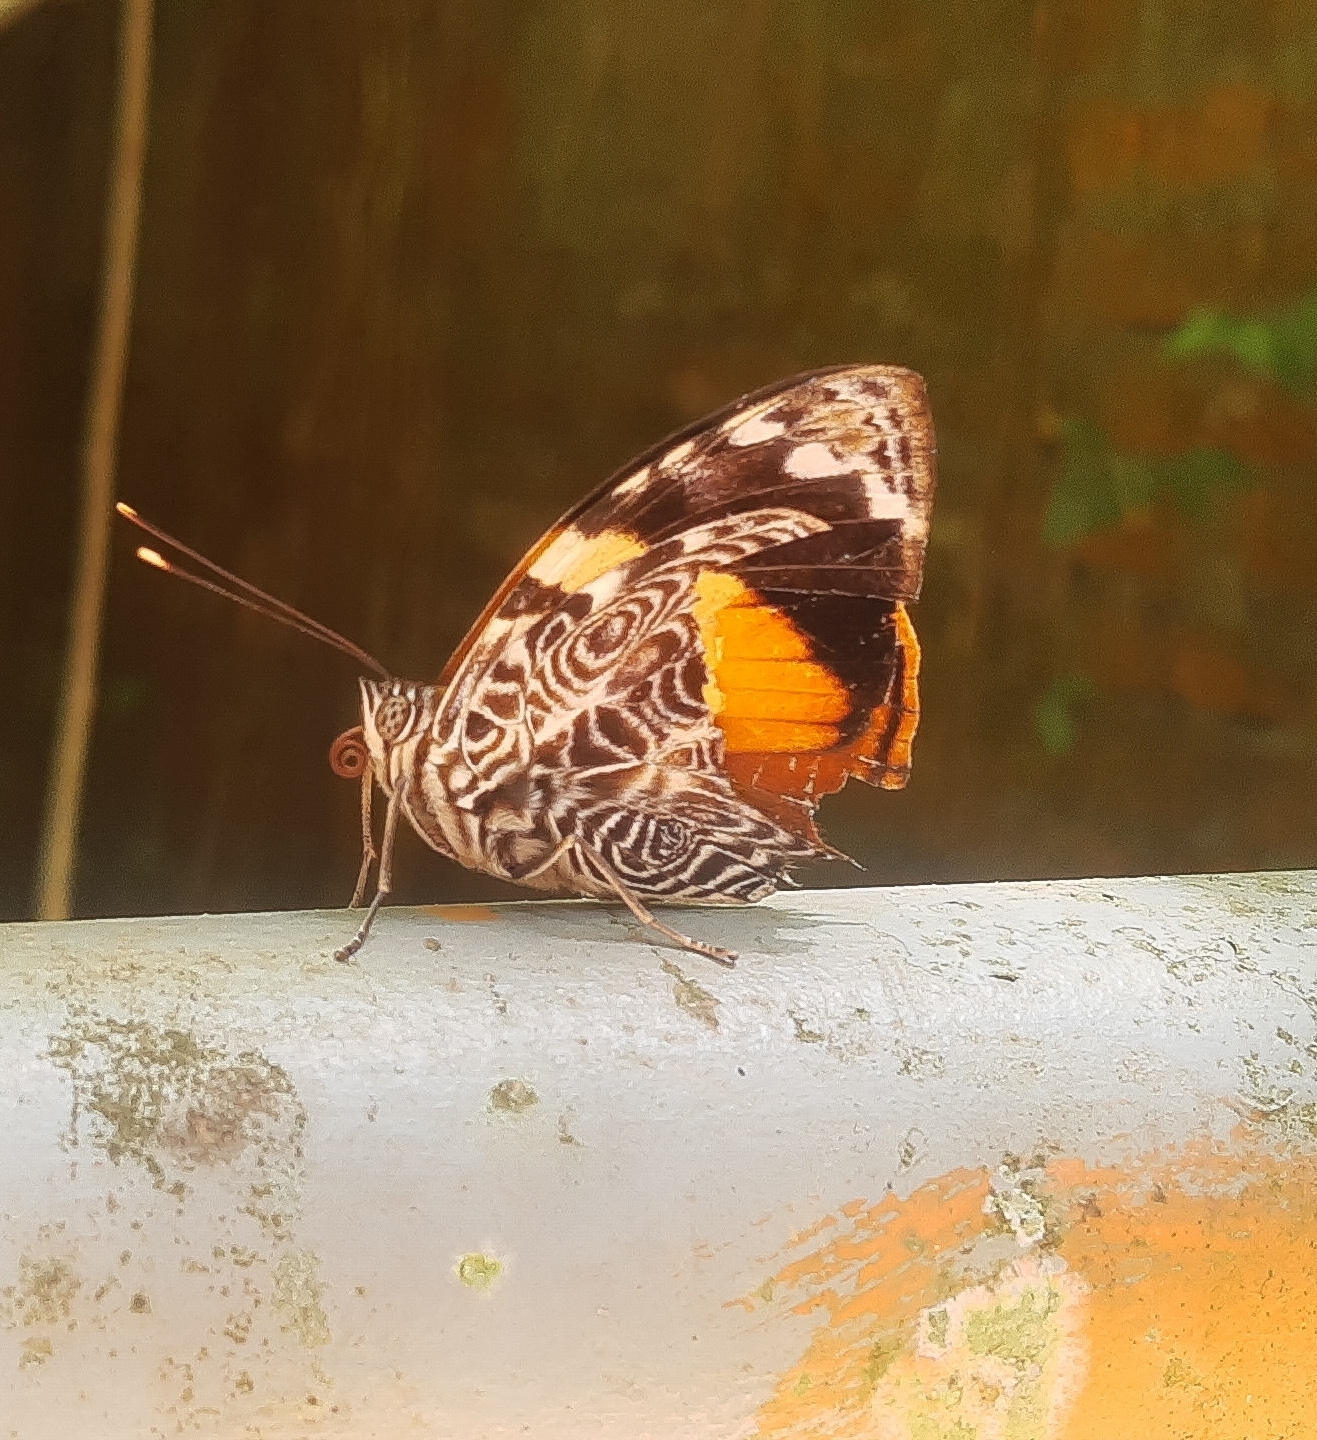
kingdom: Animalia
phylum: Arthropoda
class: Insecta
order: Lepidoptera
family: Nymphalidae
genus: Smyrna
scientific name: Smyrna blomfildia
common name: Blomfild's beauty
